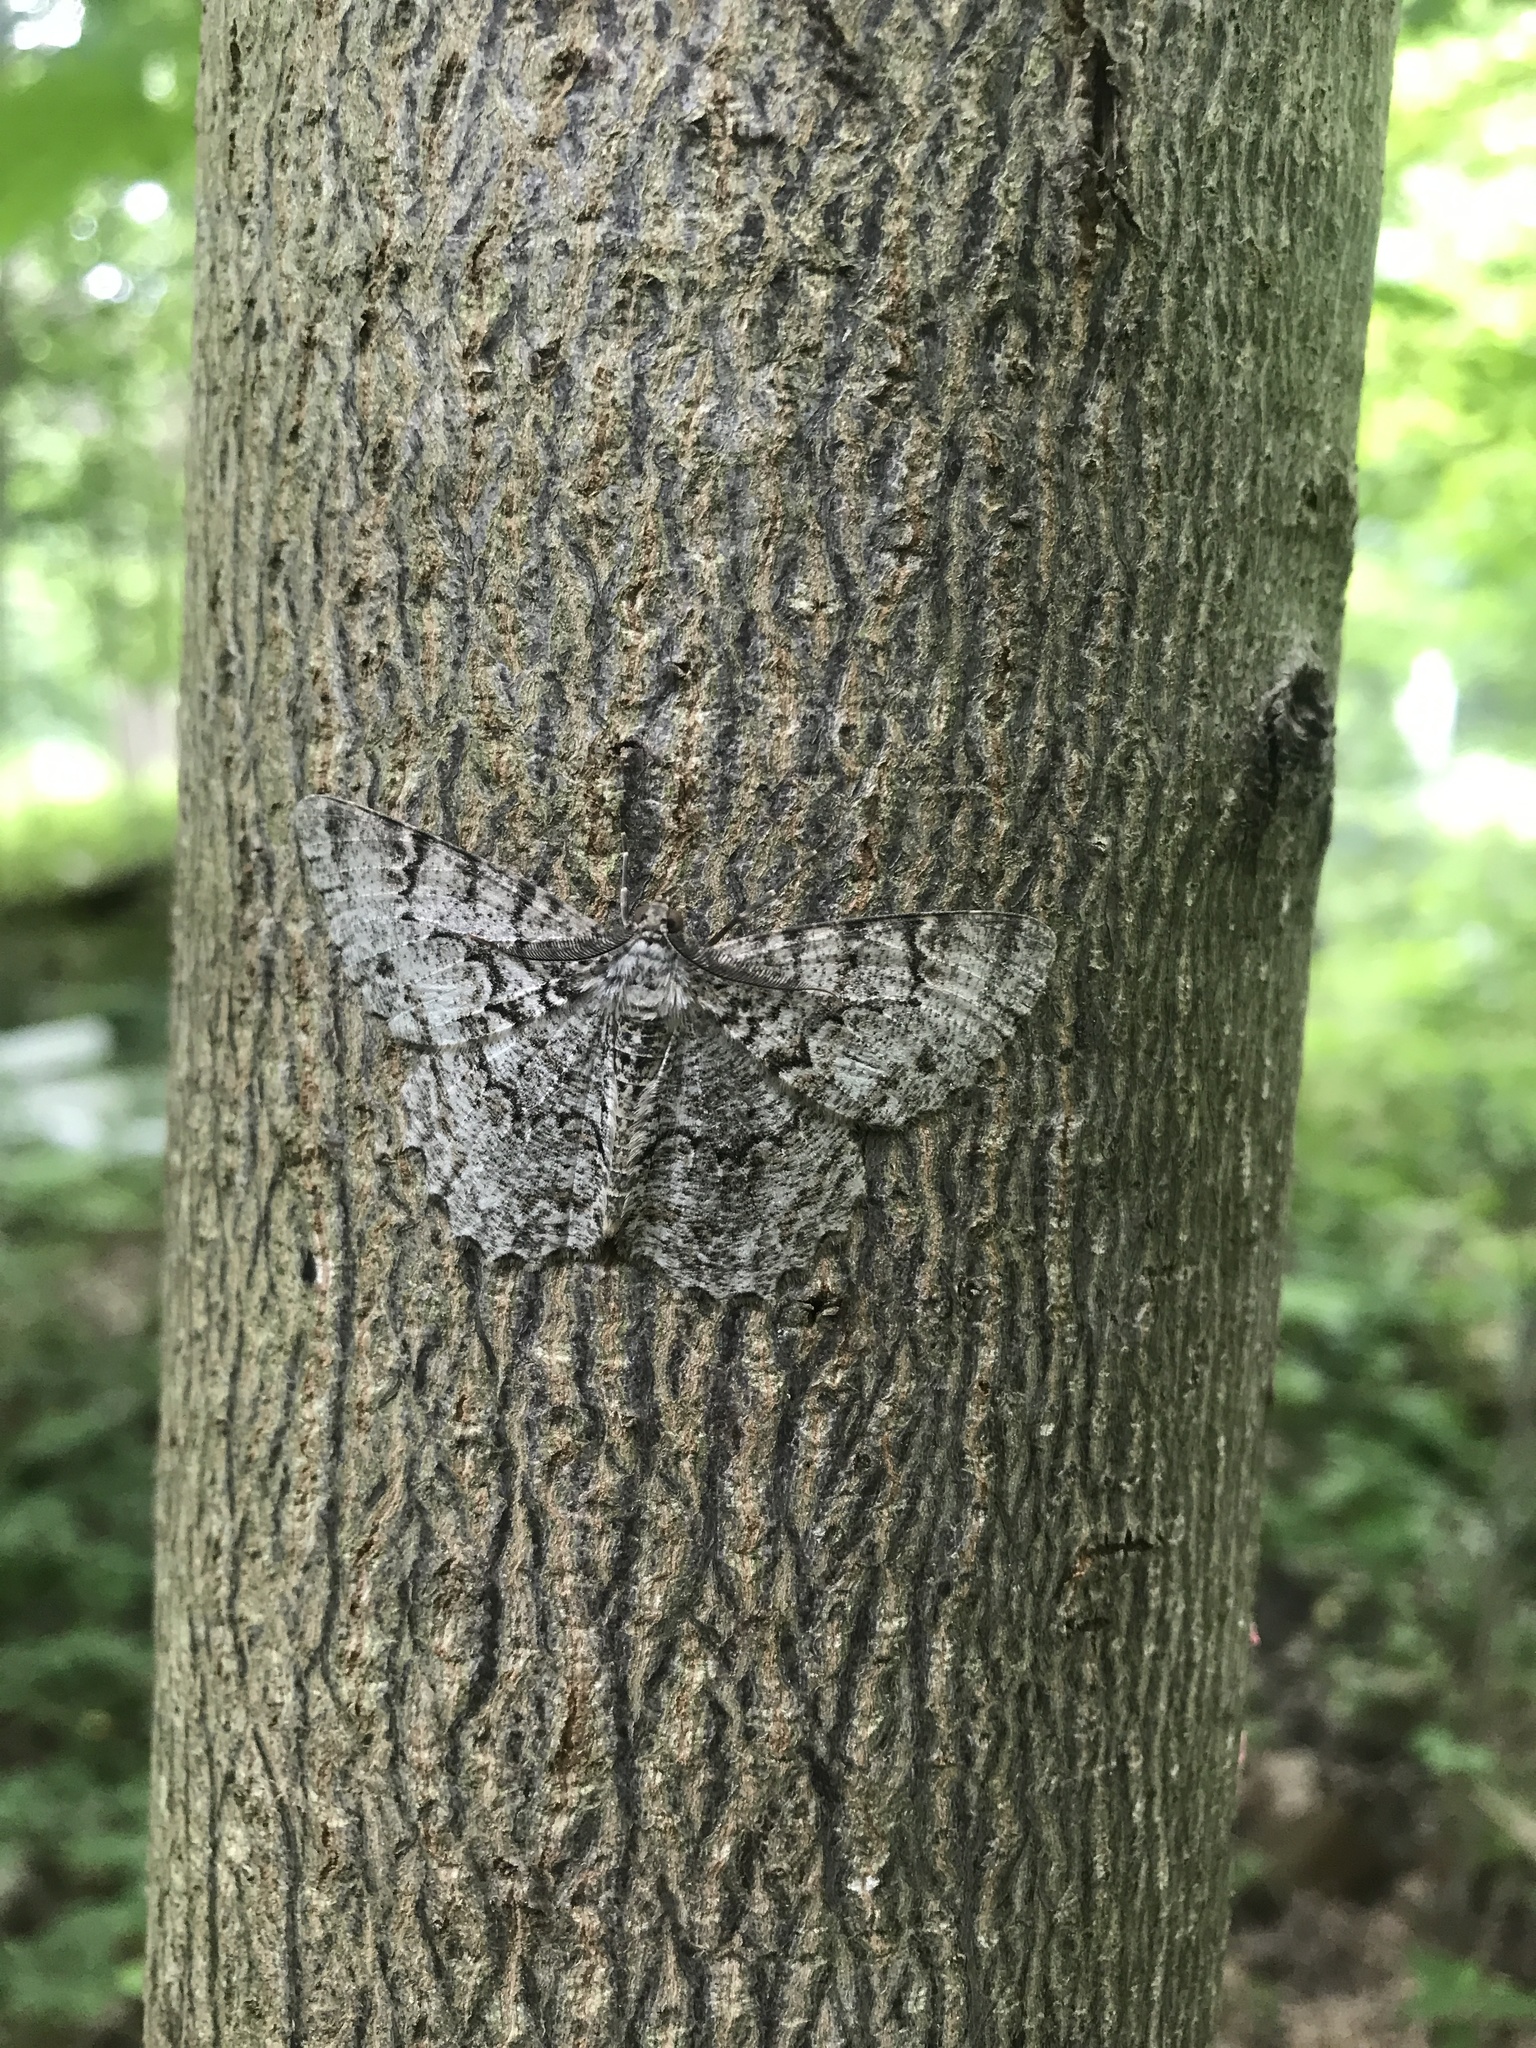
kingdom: Animalia
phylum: Arthropoda
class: Insecta
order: Lepidoptera
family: Geometridae
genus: Epimecis
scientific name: Epimecis hortaria
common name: Tulip-tree beauty
